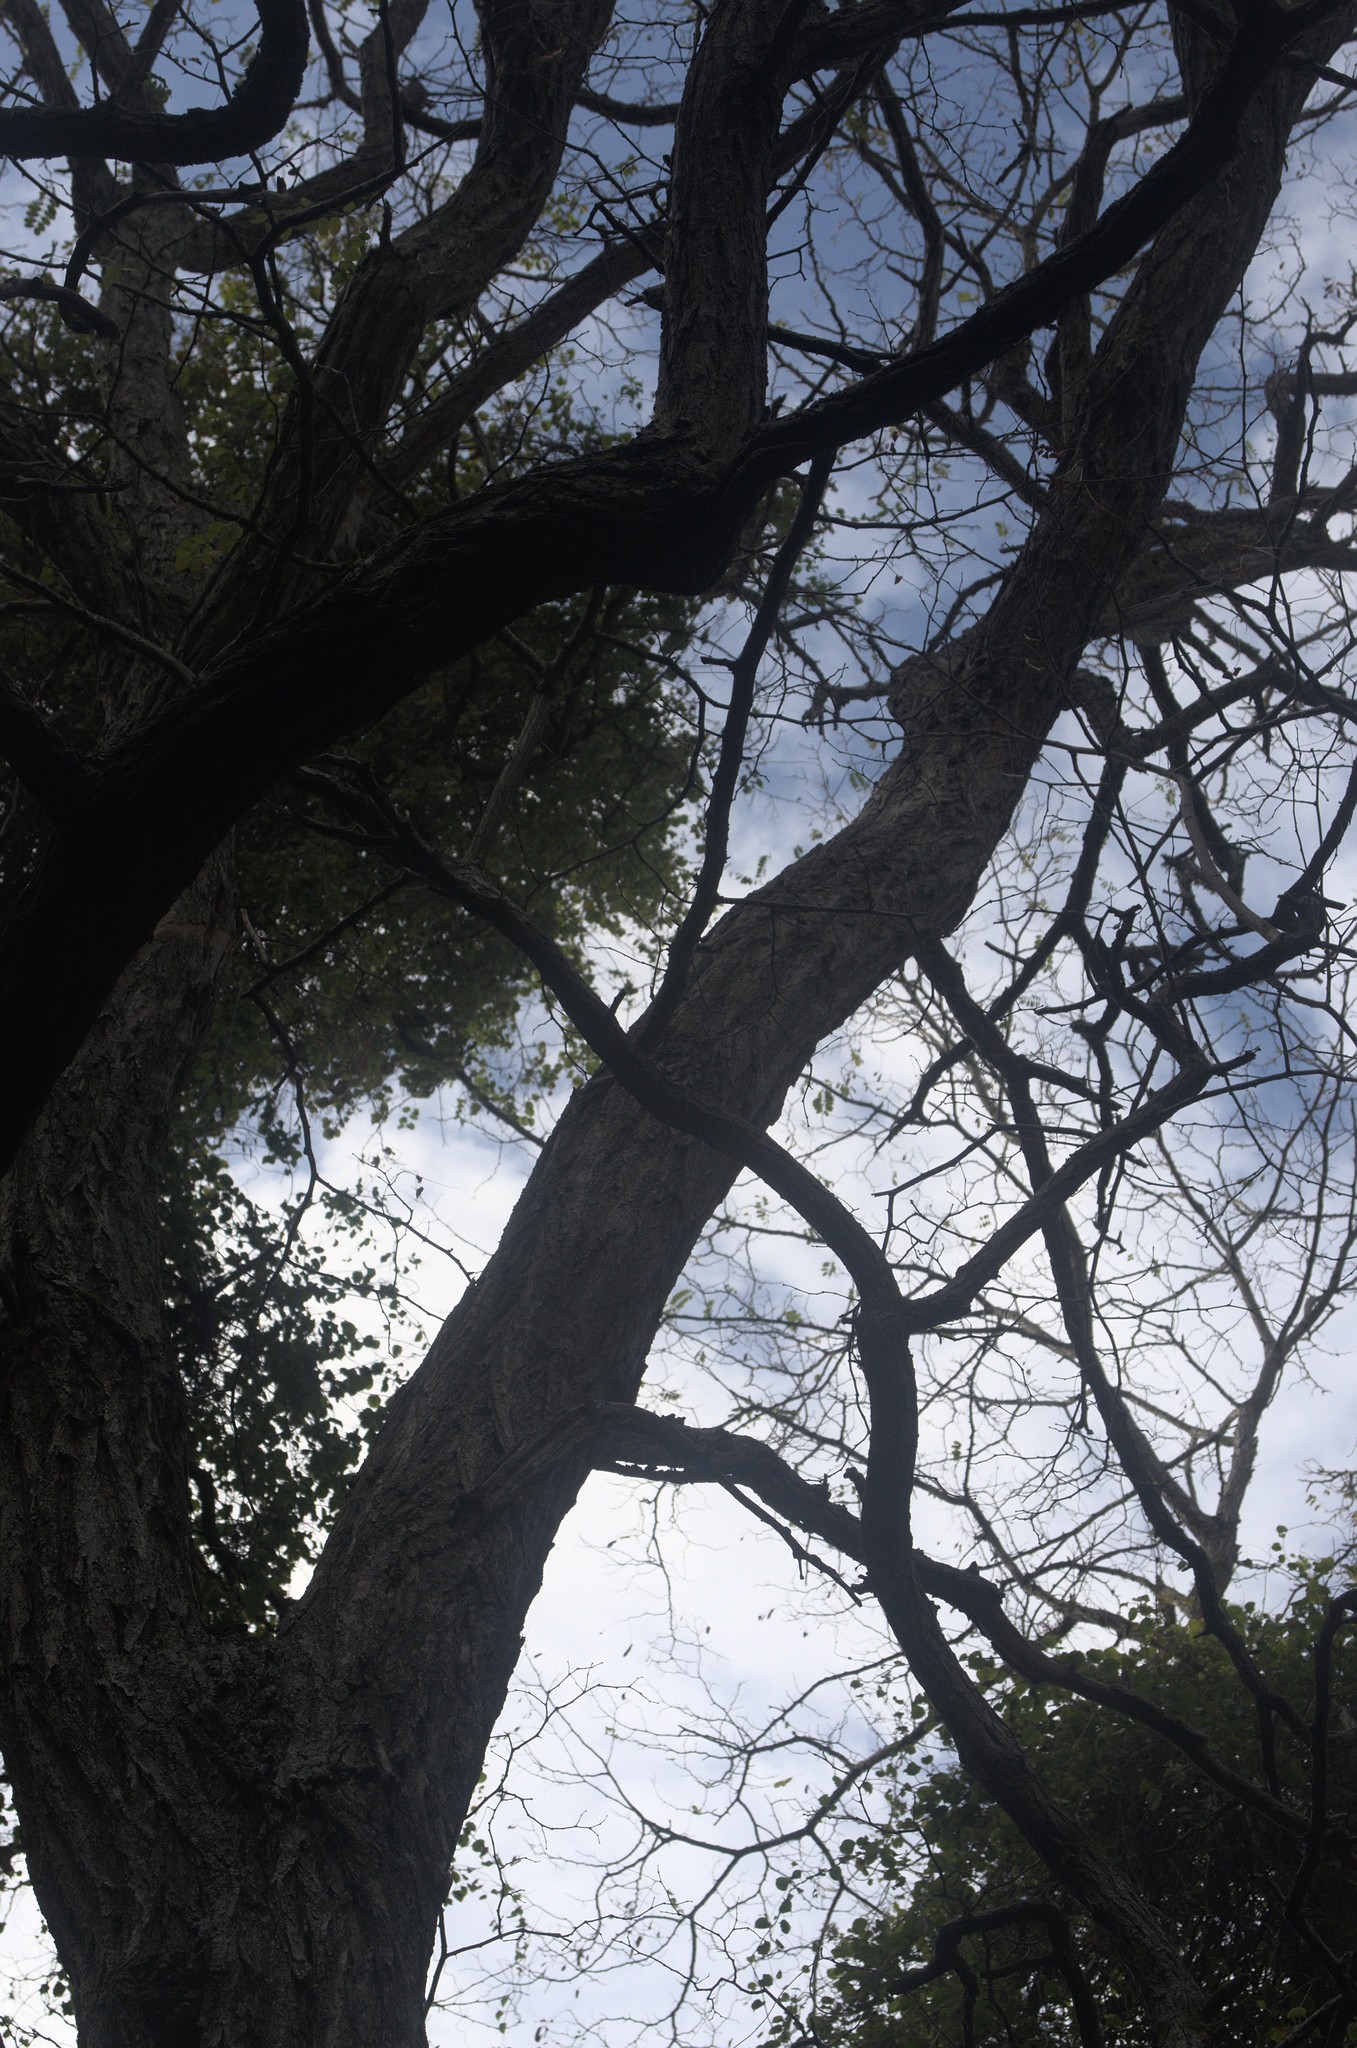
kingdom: Plantae
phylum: Tracheophyta
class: Magnoliopsida
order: Fabales
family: Fabaceae
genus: Robinia
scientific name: Robinia pseudoacacia
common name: Black locust
